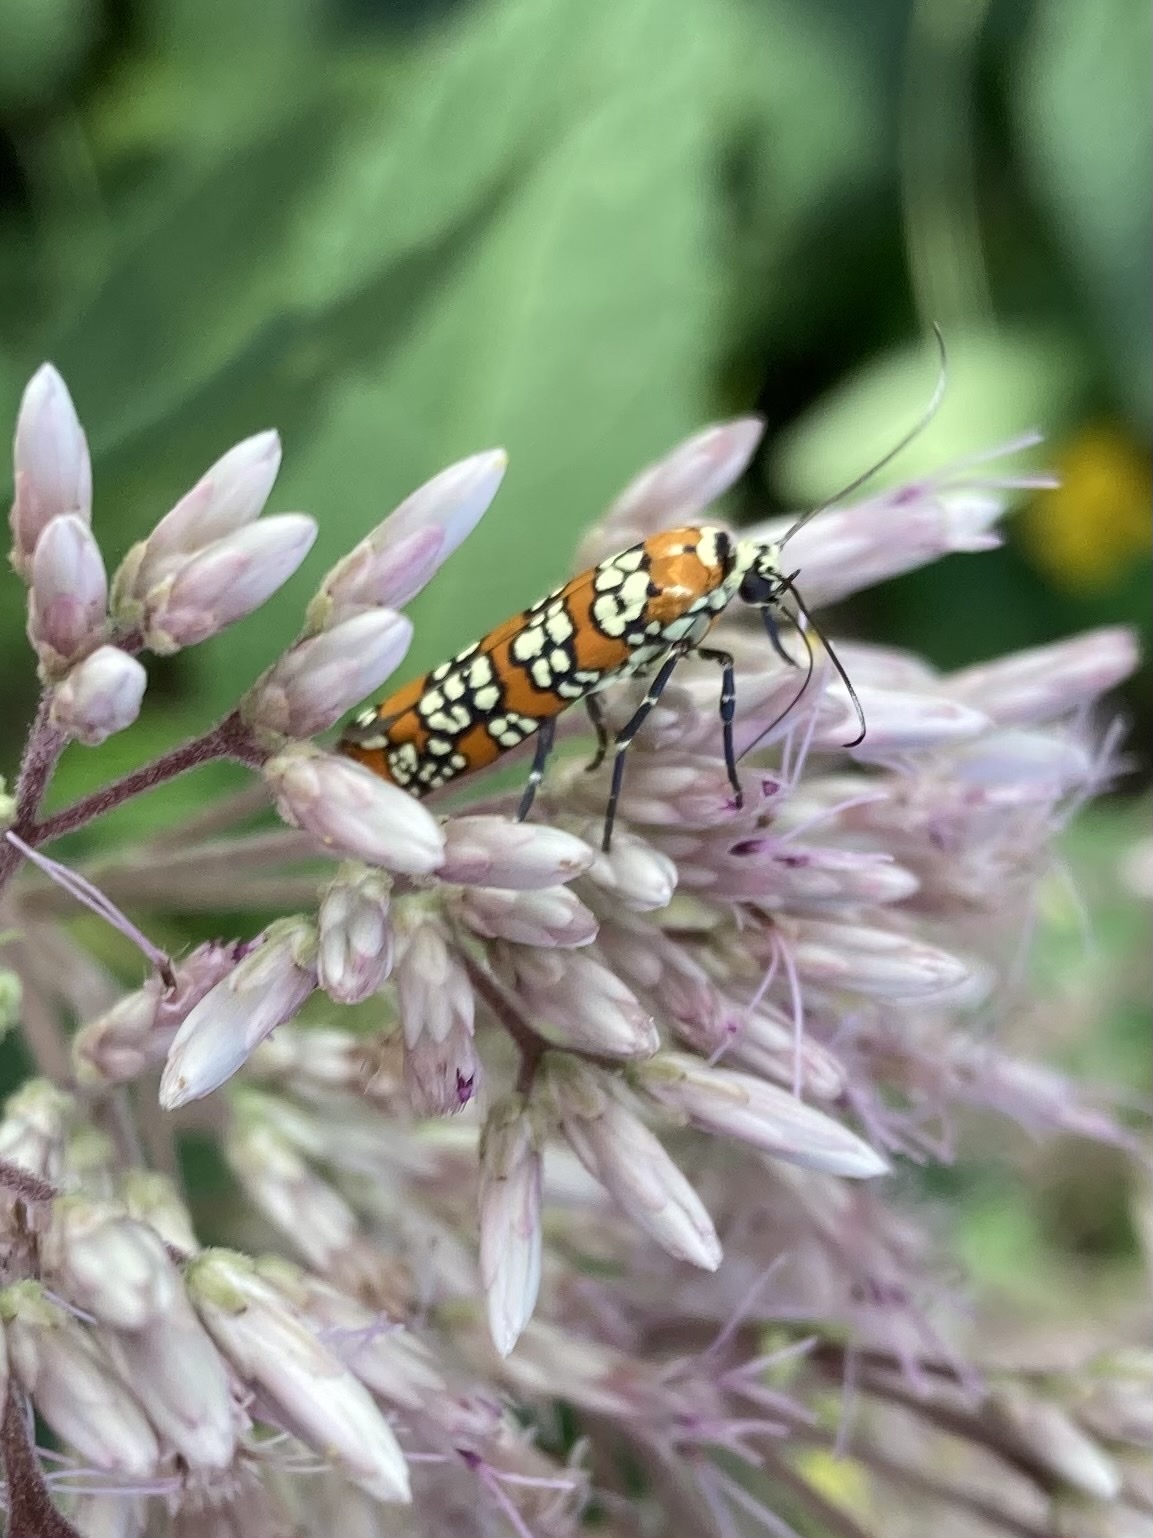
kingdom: Animalia
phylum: Arthropoda
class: Insecta
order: Lepidoptera
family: Attevidae
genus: Atteva
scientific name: Atteva punctella
